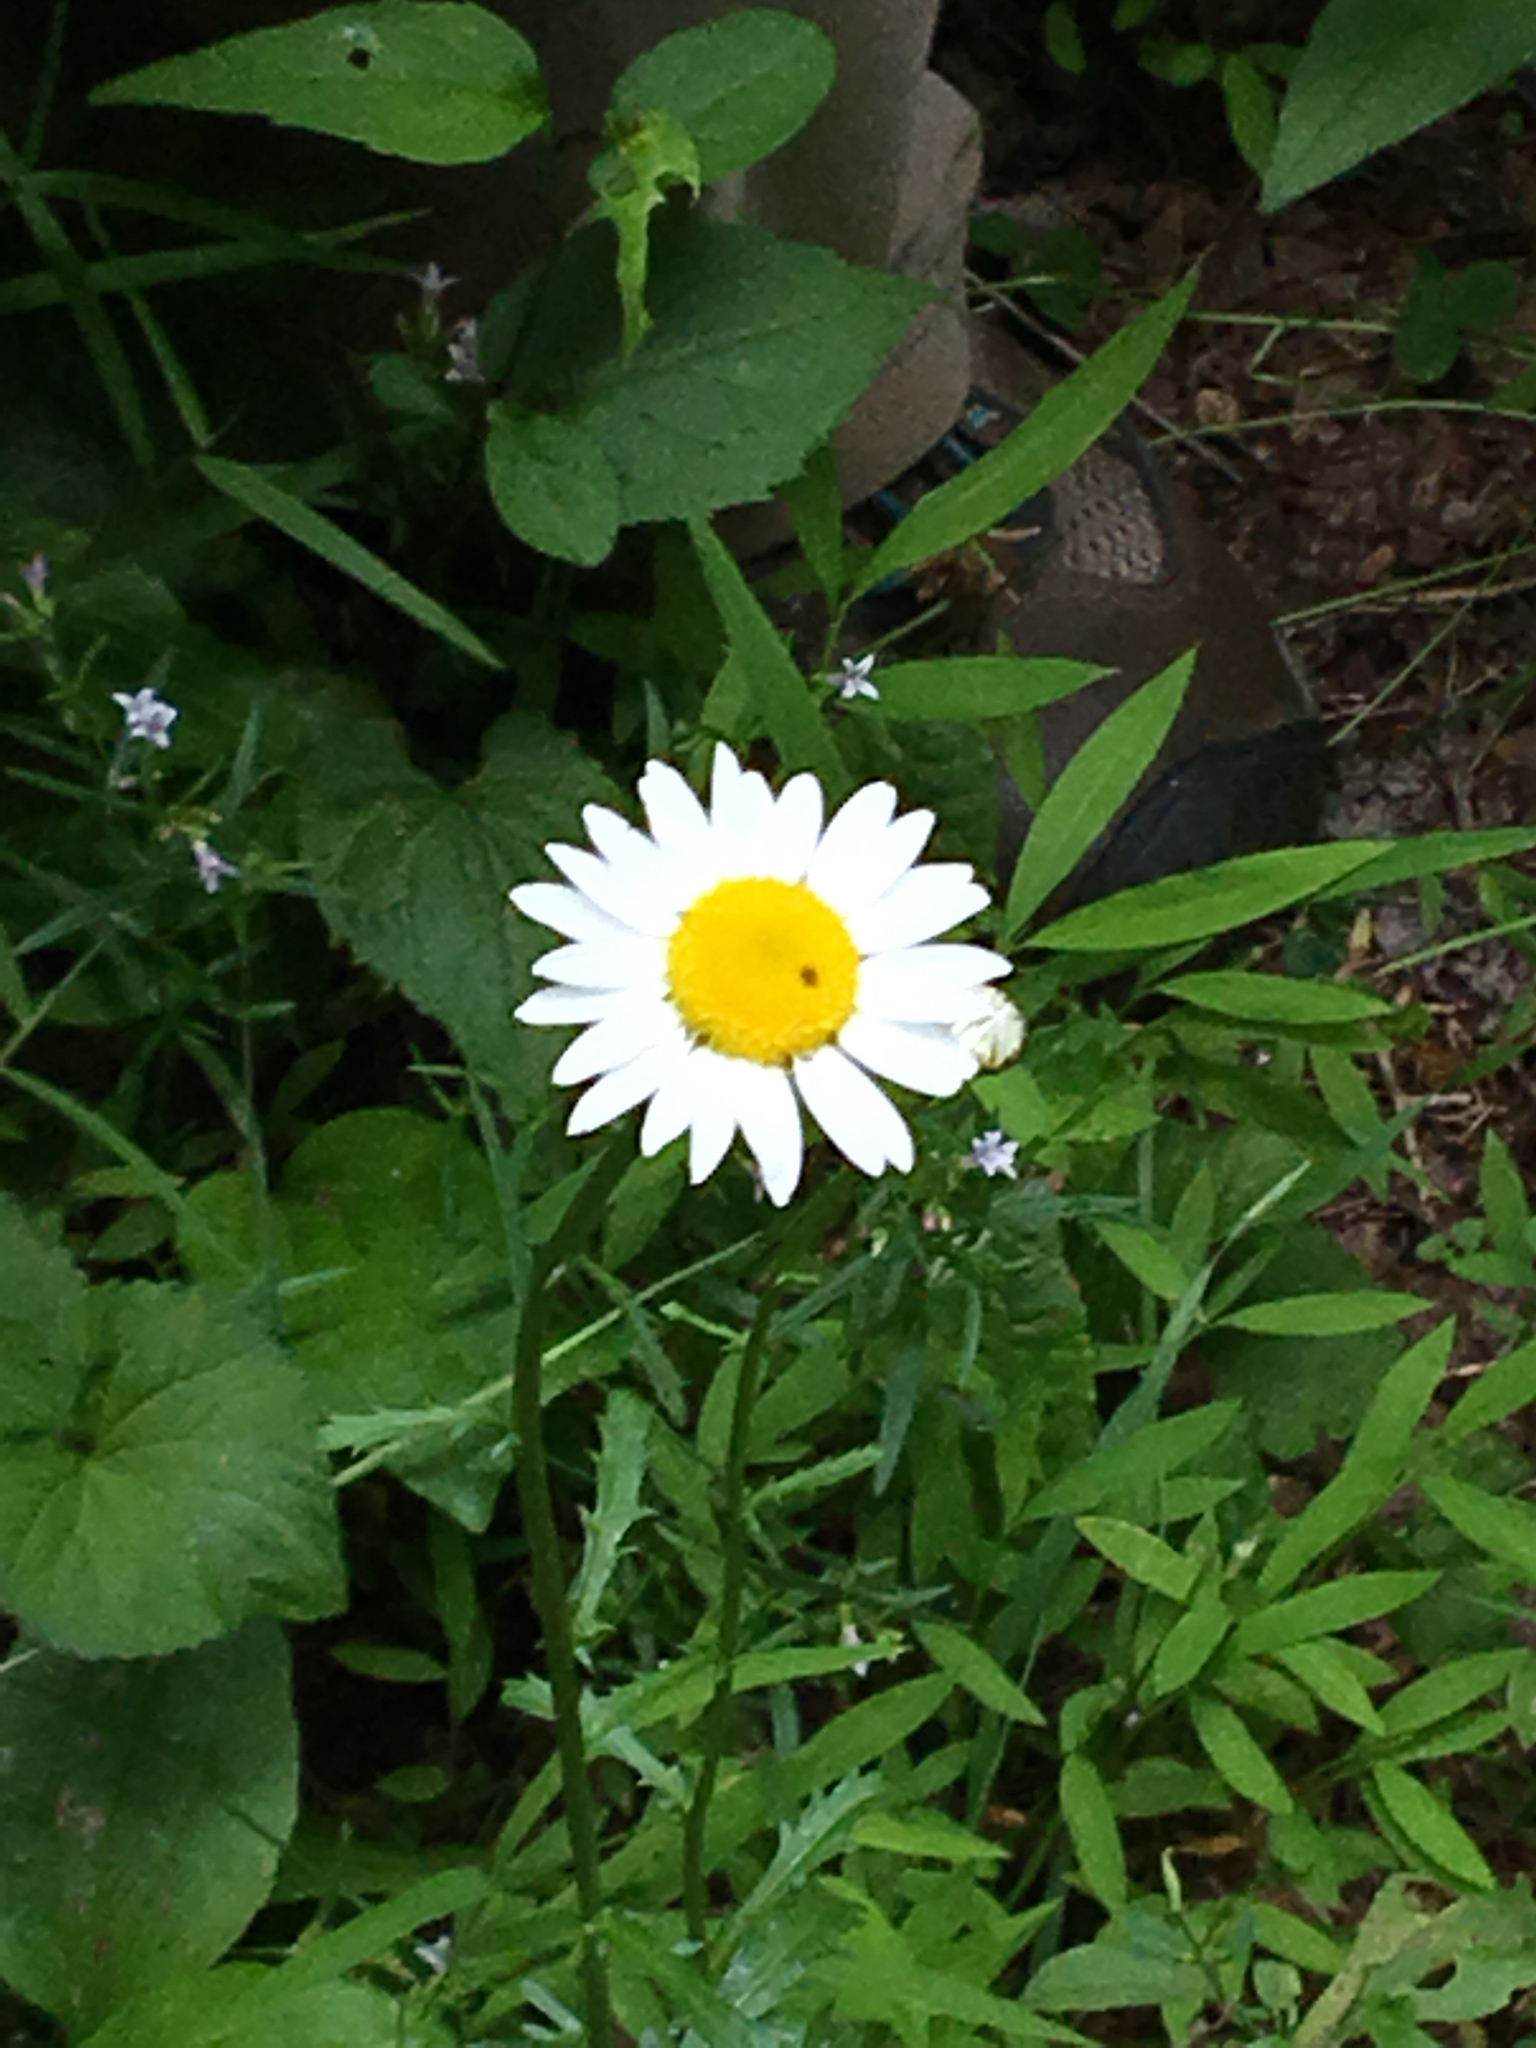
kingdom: Plantae
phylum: Tracheophyta
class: Magnoliopsida
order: Asterales
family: Asteraceae
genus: Leucanthemum
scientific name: Leucanthemum vulgare
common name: Oxeye daisy
